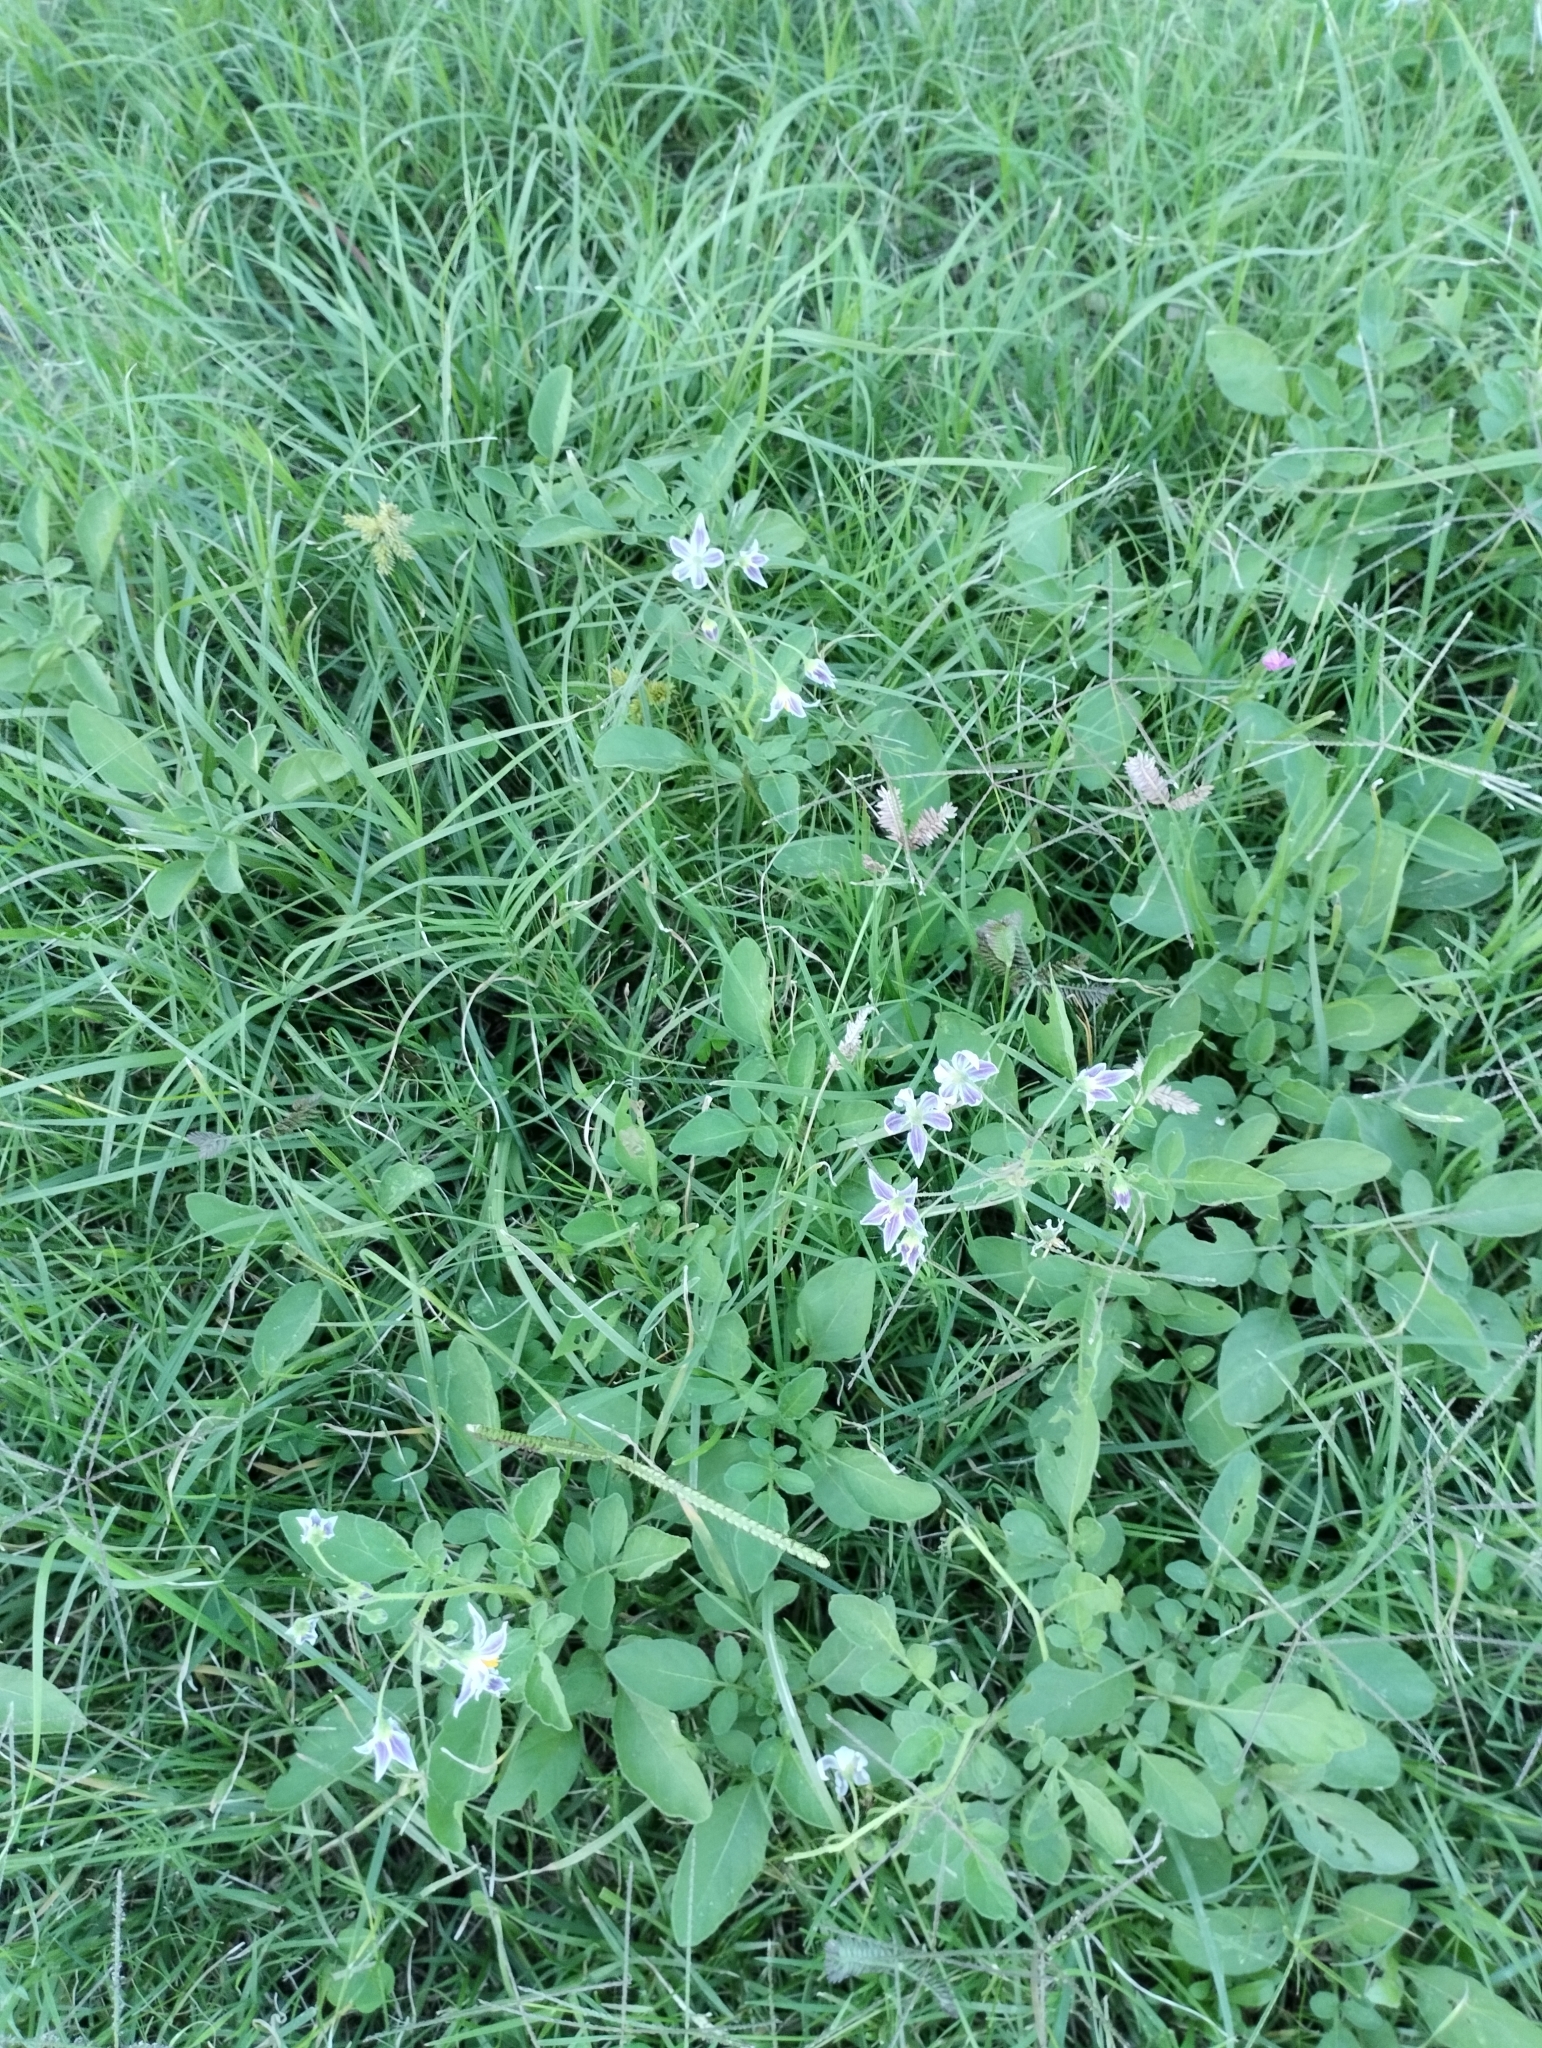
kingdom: Plantae
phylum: Tracheophyta
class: Magnoliopsida
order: Solanales
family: Solanaceae
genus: Solanum
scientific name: Solanum commersonii
